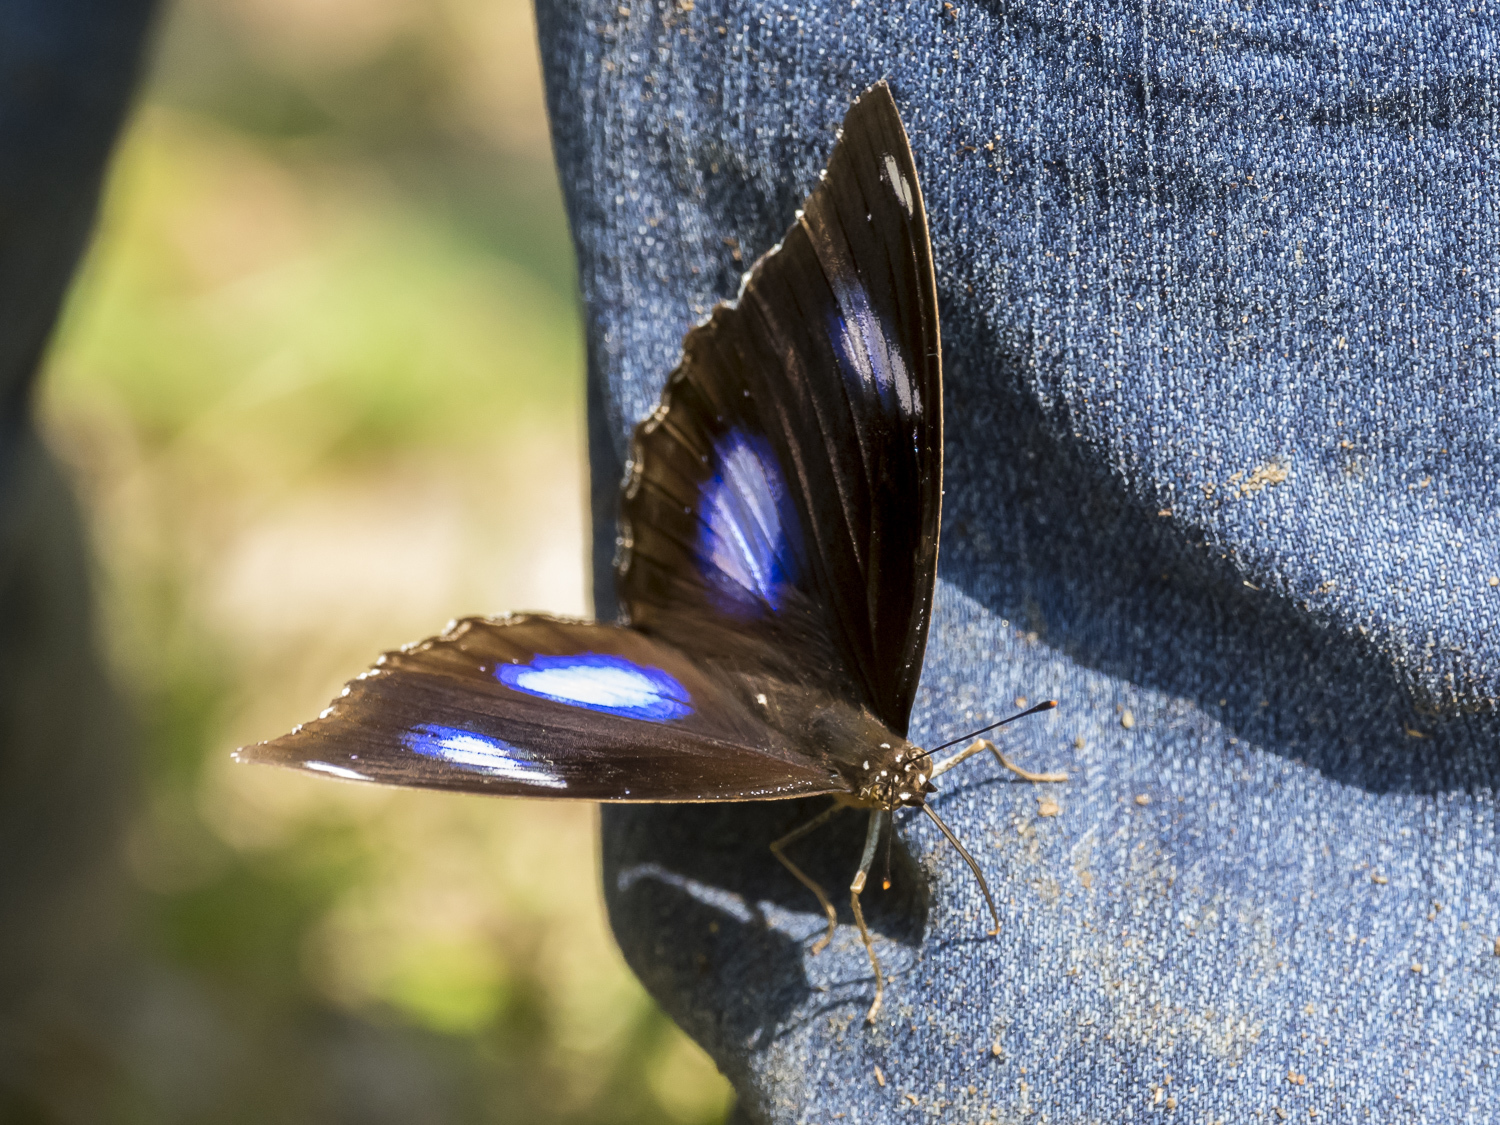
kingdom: Animalia
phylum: Arthropoda
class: Insecta
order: Lepidoptera
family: Nymphalidae
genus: Hypolimnas
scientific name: Hypolimnas bolina
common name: Great eggfly
